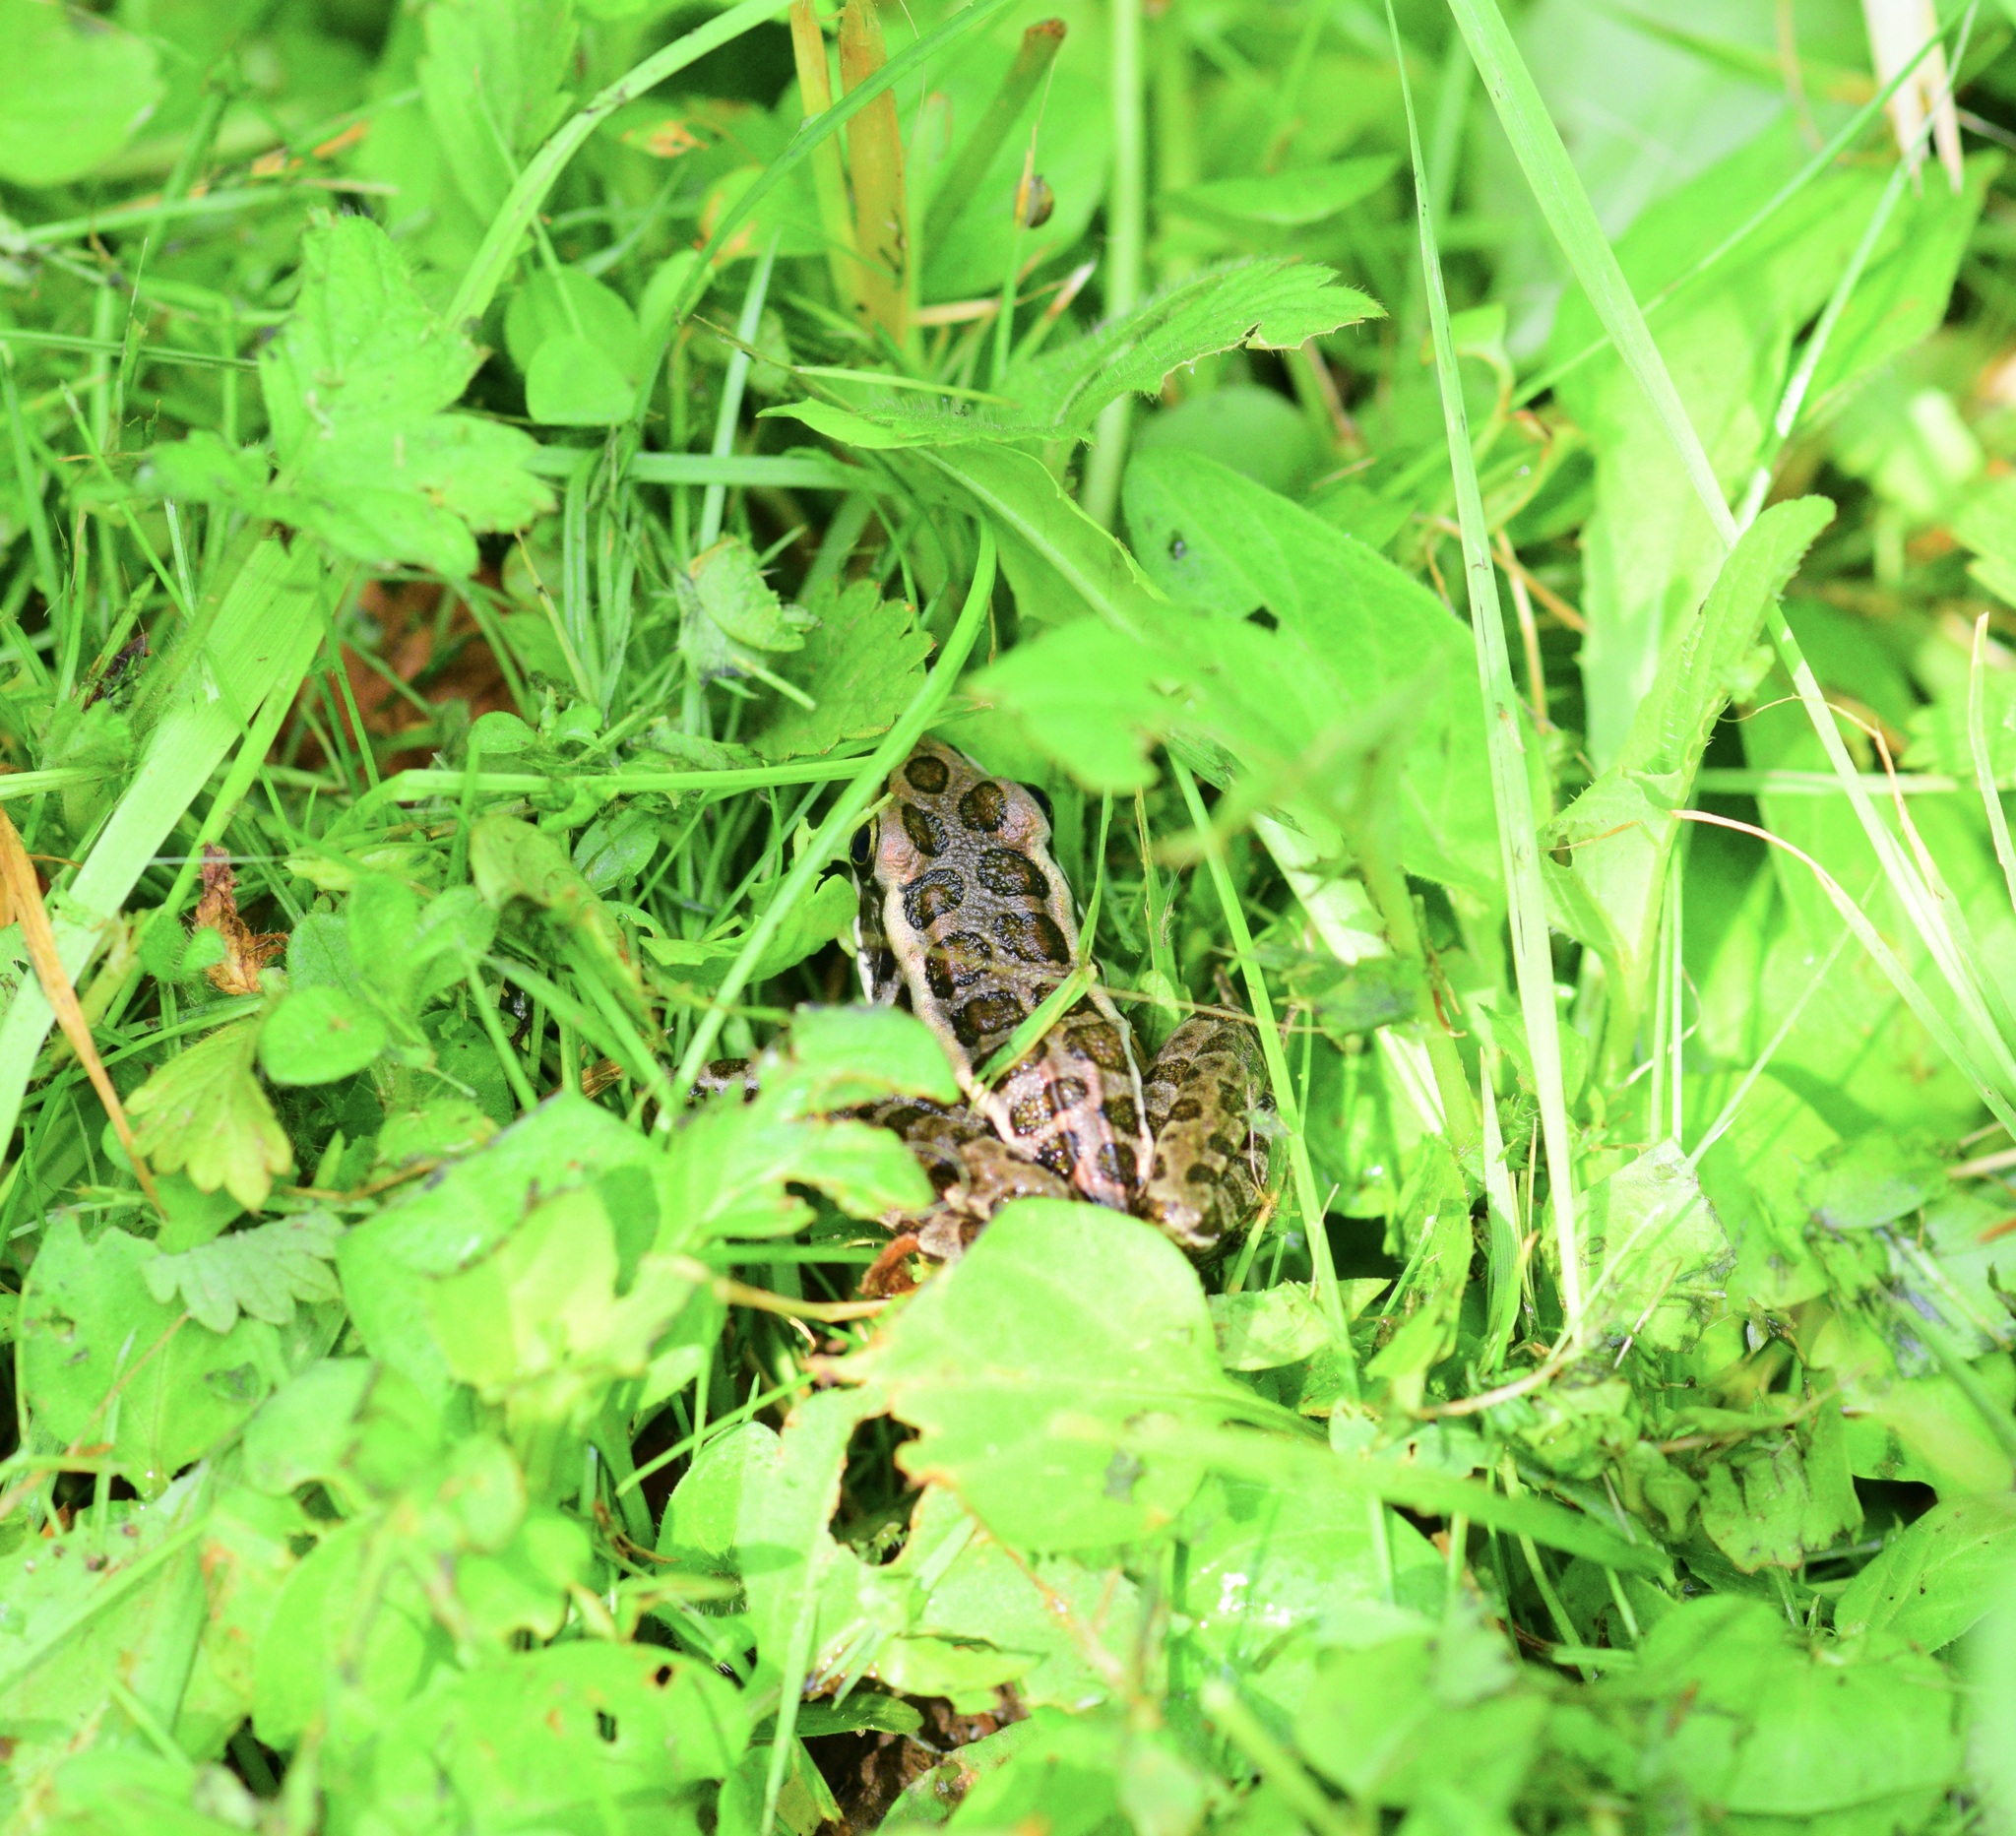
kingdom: Animalia
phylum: Chordata
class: Amphibia
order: Anura
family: Ranidae
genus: Lithobates
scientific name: Lithobates palustris
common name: Pickerel frog
